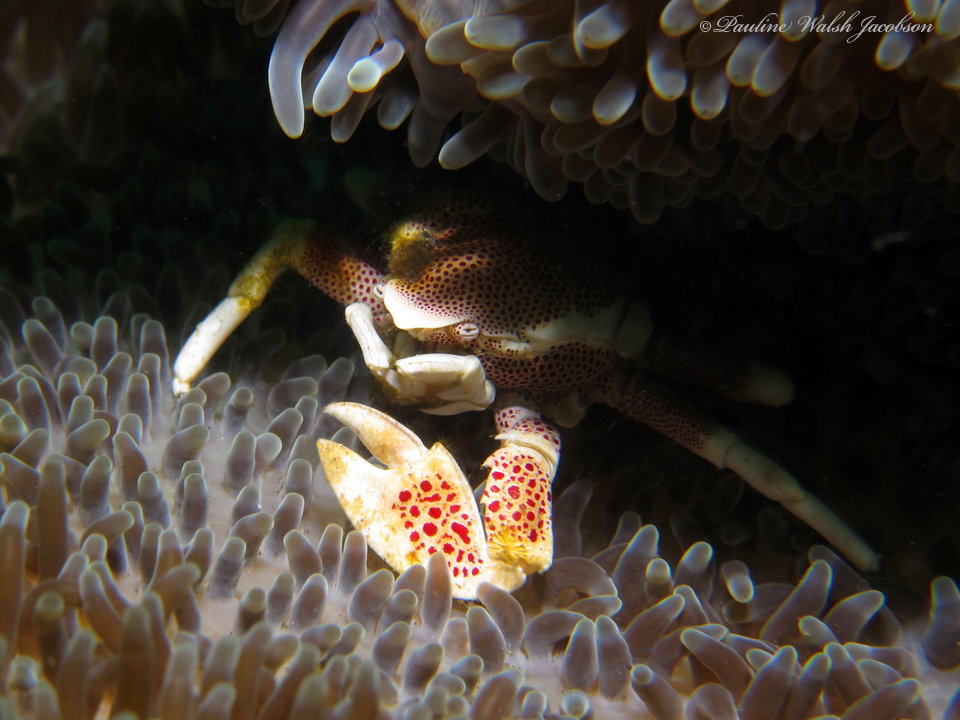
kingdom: Animalia
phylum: Arthropoda
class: Malacostraca
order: Decapoda
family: Porcellanidae
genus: Neopetrolisthes
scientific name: Neopetrolisthes maculatus
